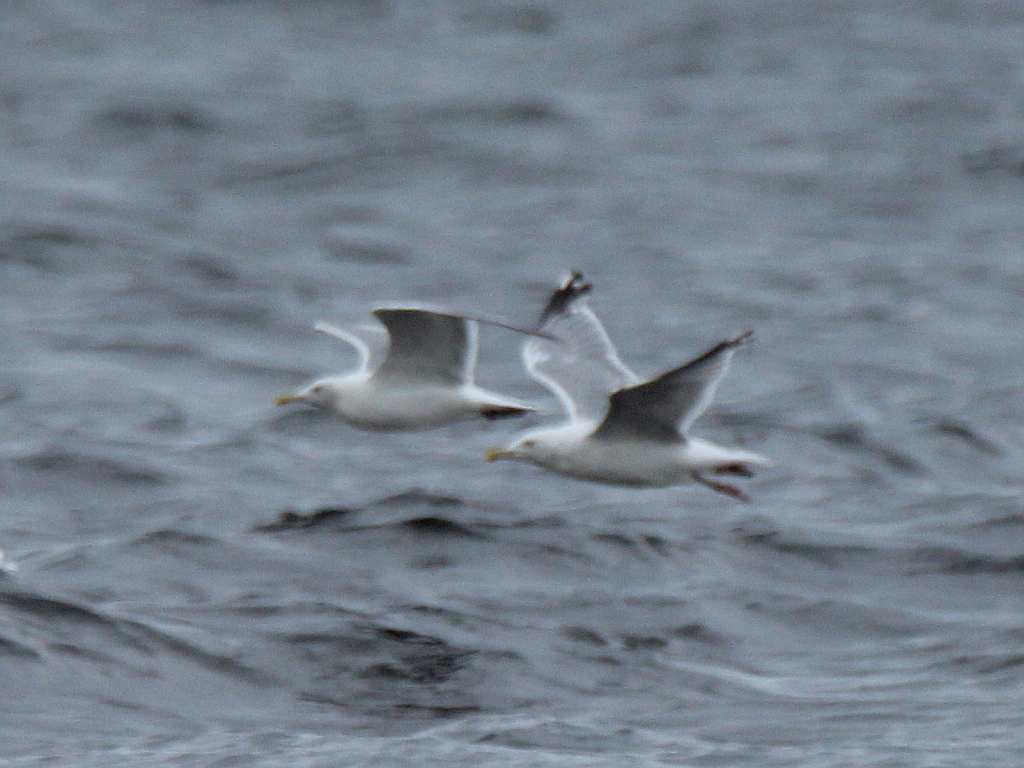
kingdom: Animalia
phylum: Chordata
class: Aves
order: Charadriiformes
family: Laridae
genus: Larus
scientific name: Larus argentatus
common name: Herring gull
